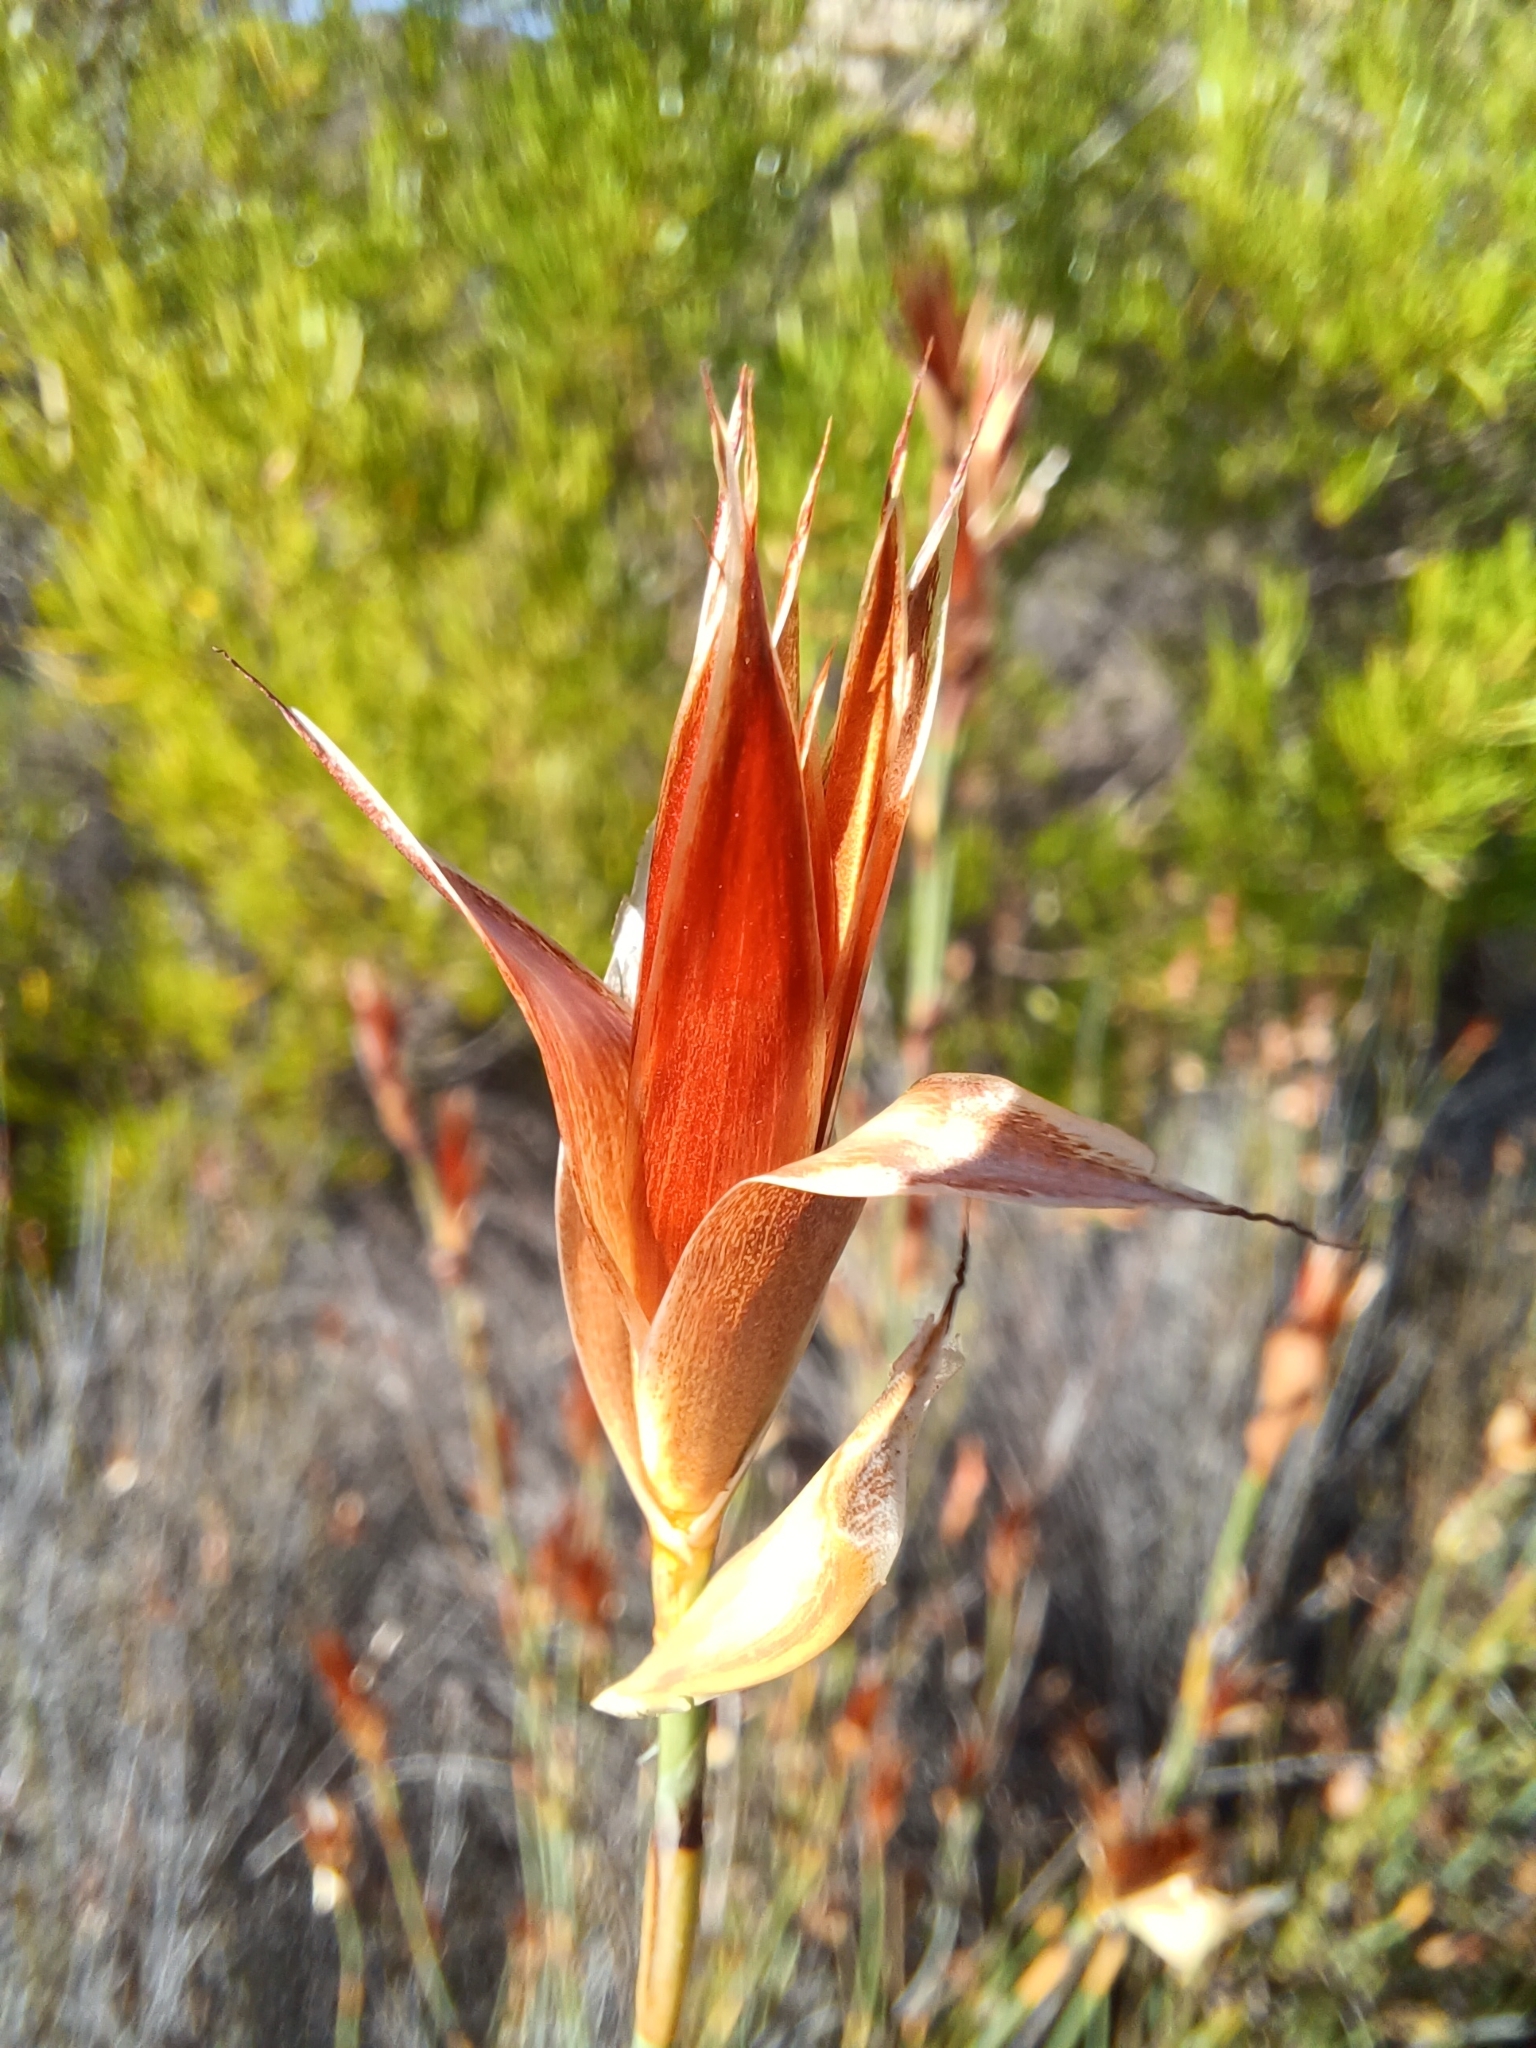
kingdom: Plantae
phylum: Tracheophyta
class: Liliopsida
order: Poales
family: Restionaceae
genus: Willdenowia
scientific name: Willdenowia incurvata
